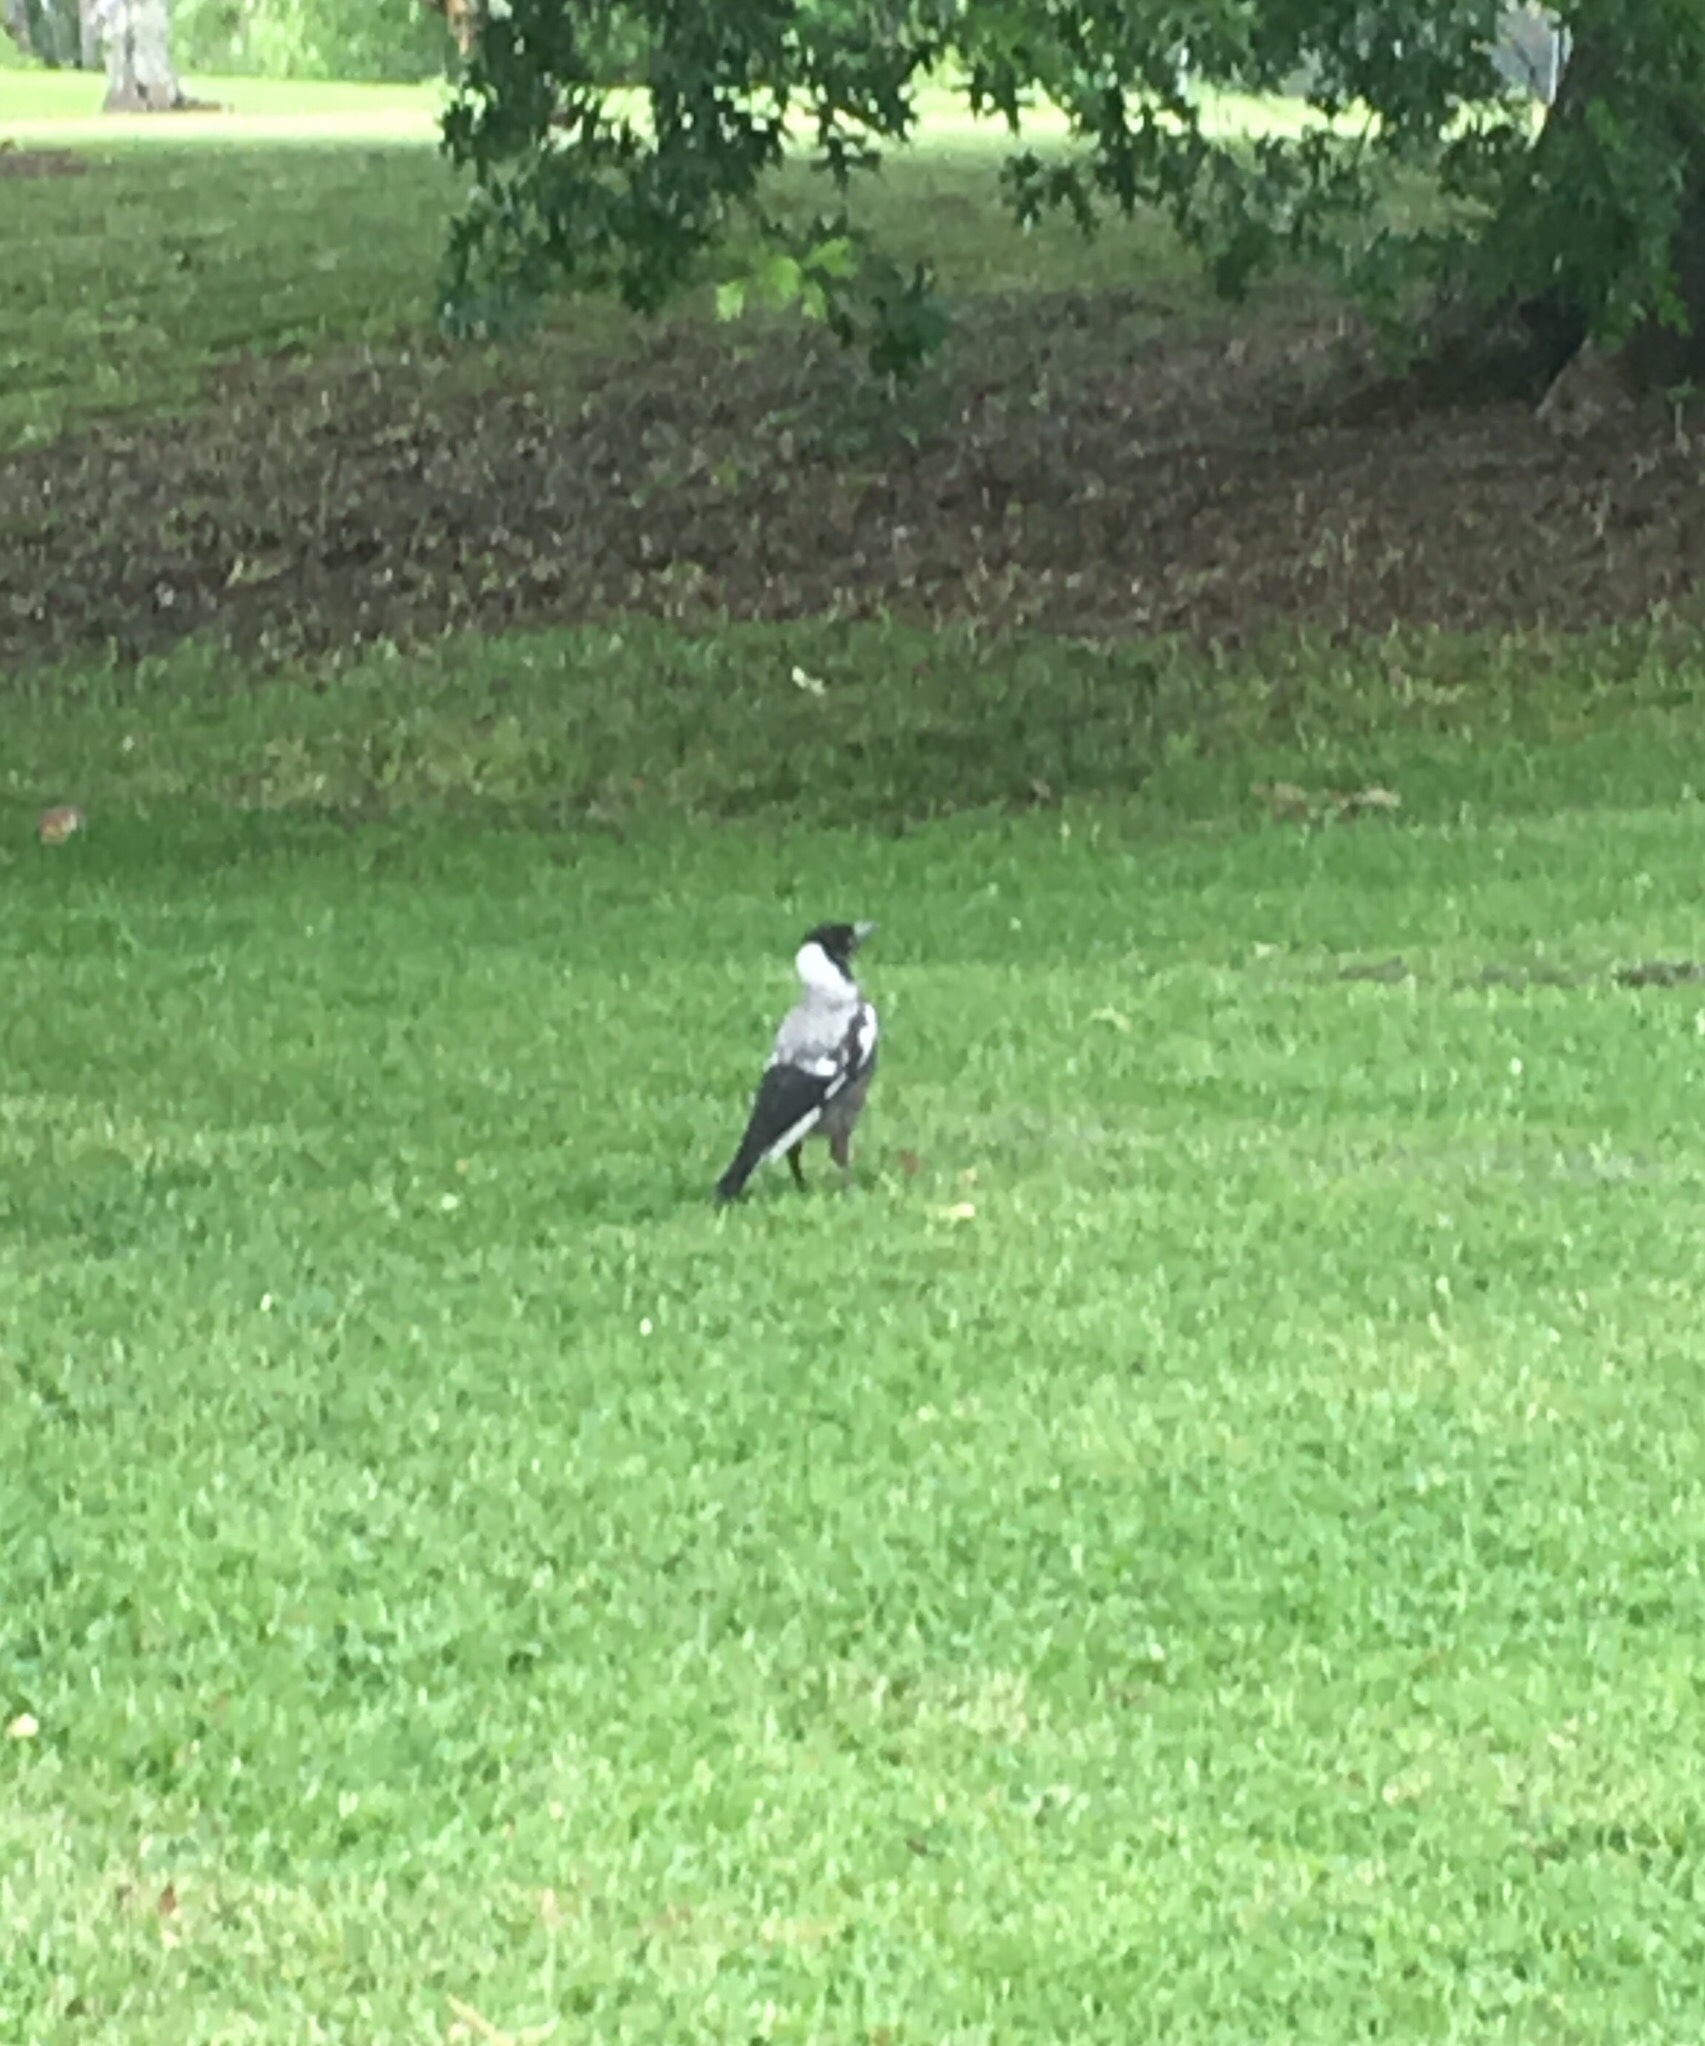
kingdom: Animalia
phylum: Chordata
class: Aves
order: Passeriformes
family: Cracticidae
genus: Gymnorhina
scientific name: Gymnorhina tibicen
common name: Australian magpie
